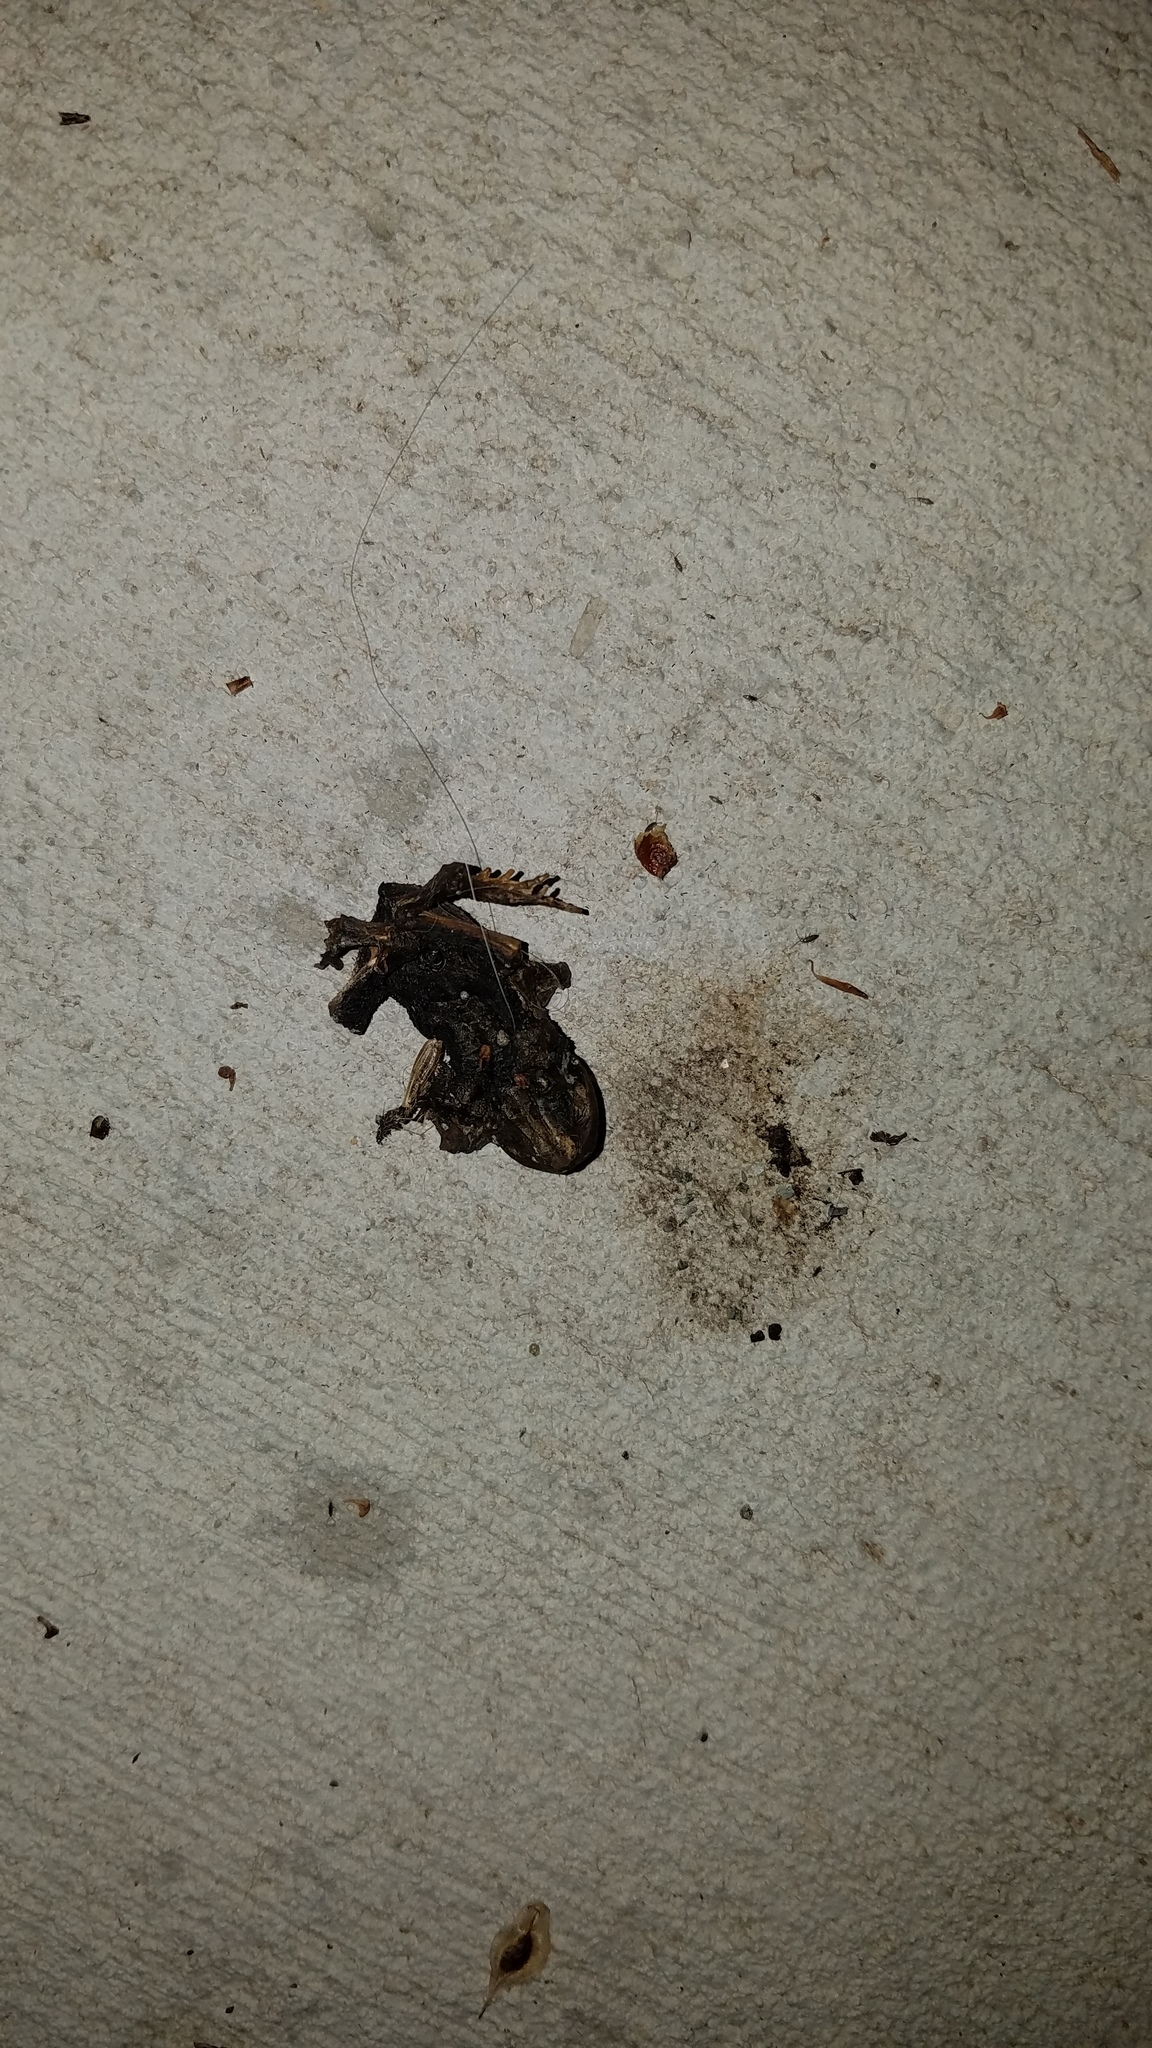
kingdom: Animalia
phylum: Chordata
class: Amphibia
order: Anura
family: Bufonidae
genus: Anaxyrus
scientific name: Anaxyrus americanus
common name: American toad
